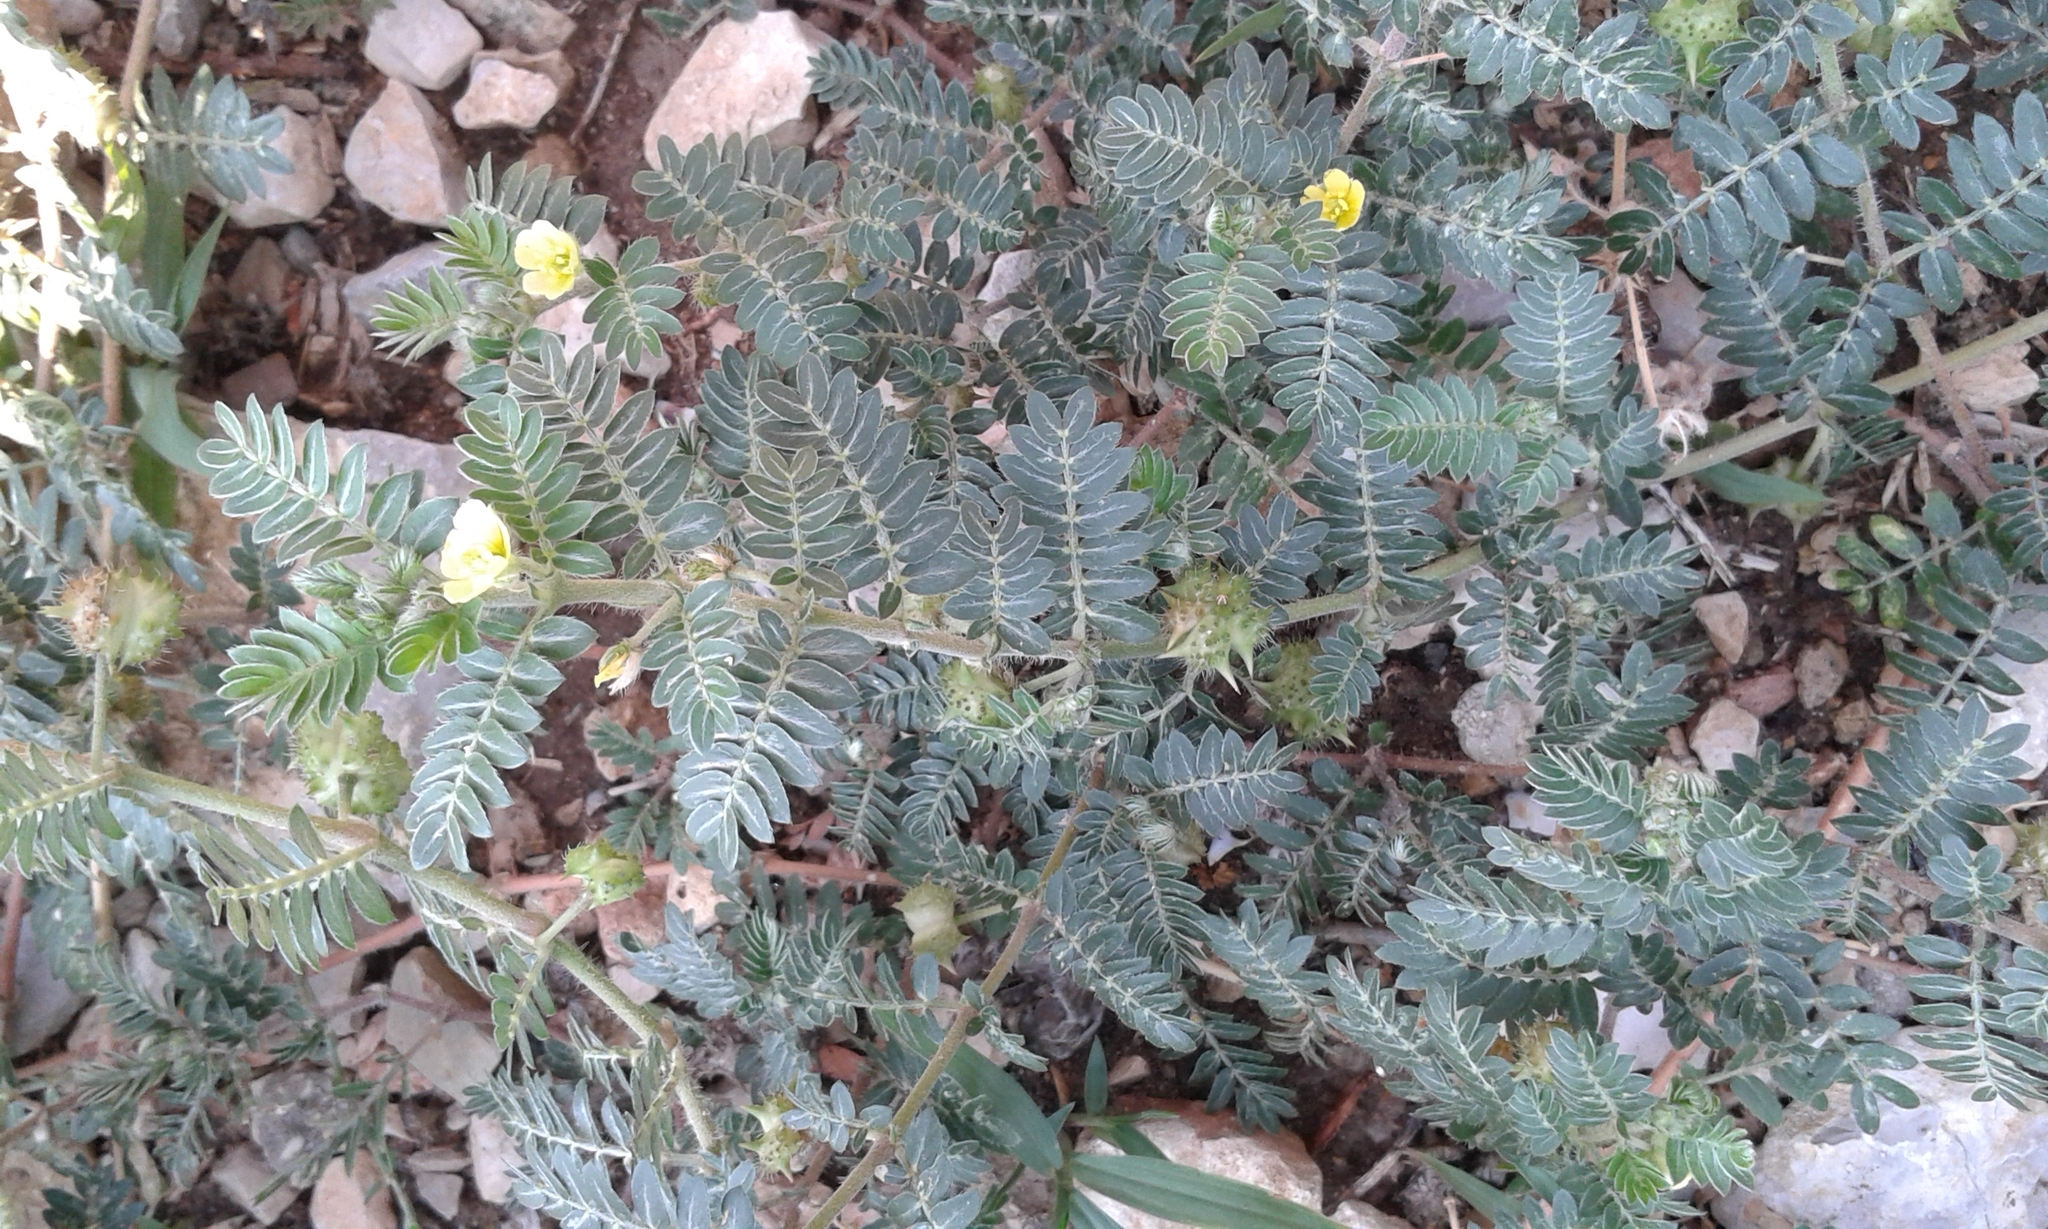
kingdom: Plantae
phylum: Tracheophyta
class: Magnoliopsida
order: Zygophyllales
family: Zygophyllaceae
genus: Tribulus
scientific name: Tribulus terrestris
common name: Puncturevine
